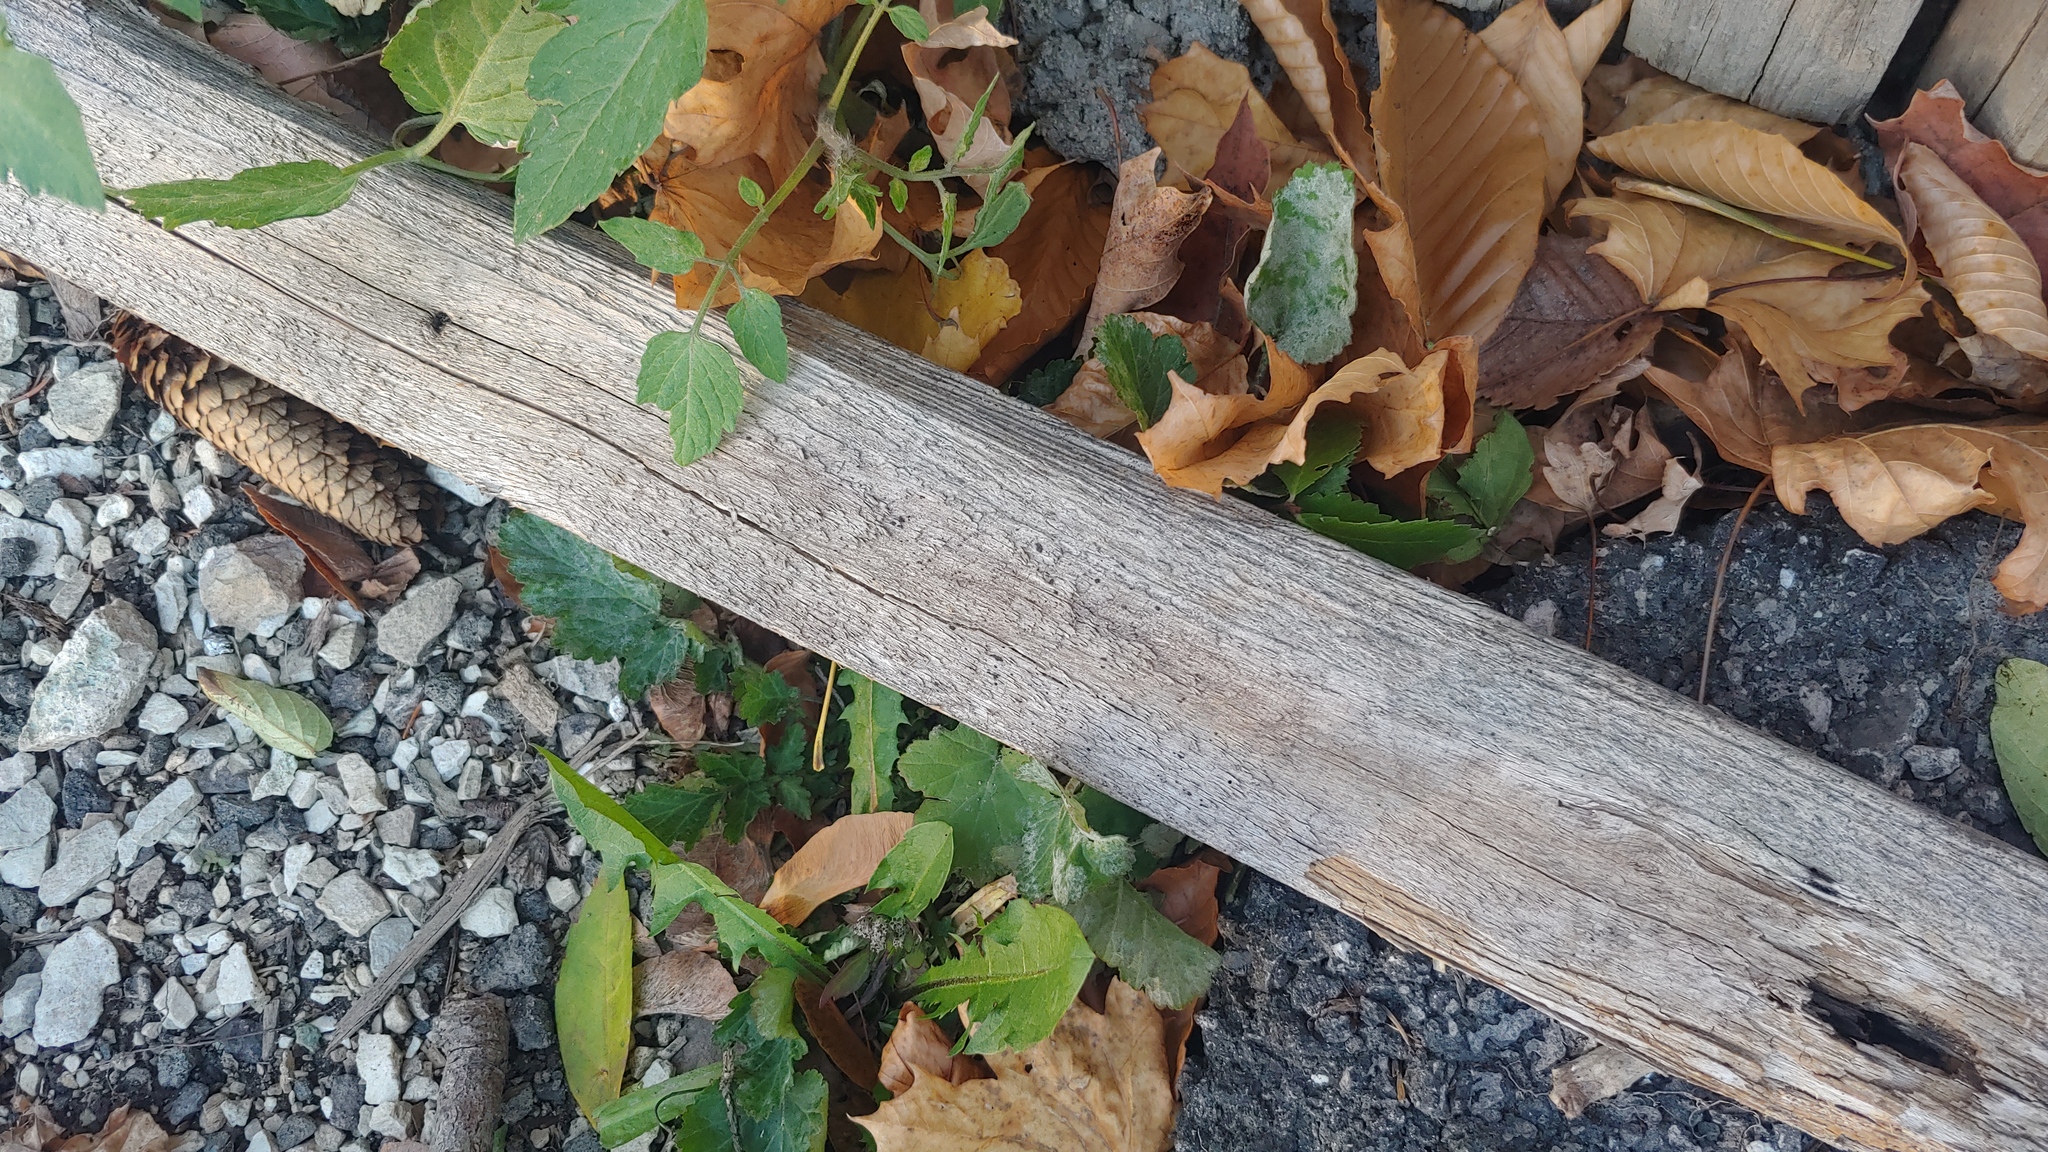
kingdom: Fungi
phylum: Ascomycota
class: Leotiomycetes
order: Helotiales
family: Erysiphaceae
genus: Podosphaera
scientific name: Podosphaera aphanis
